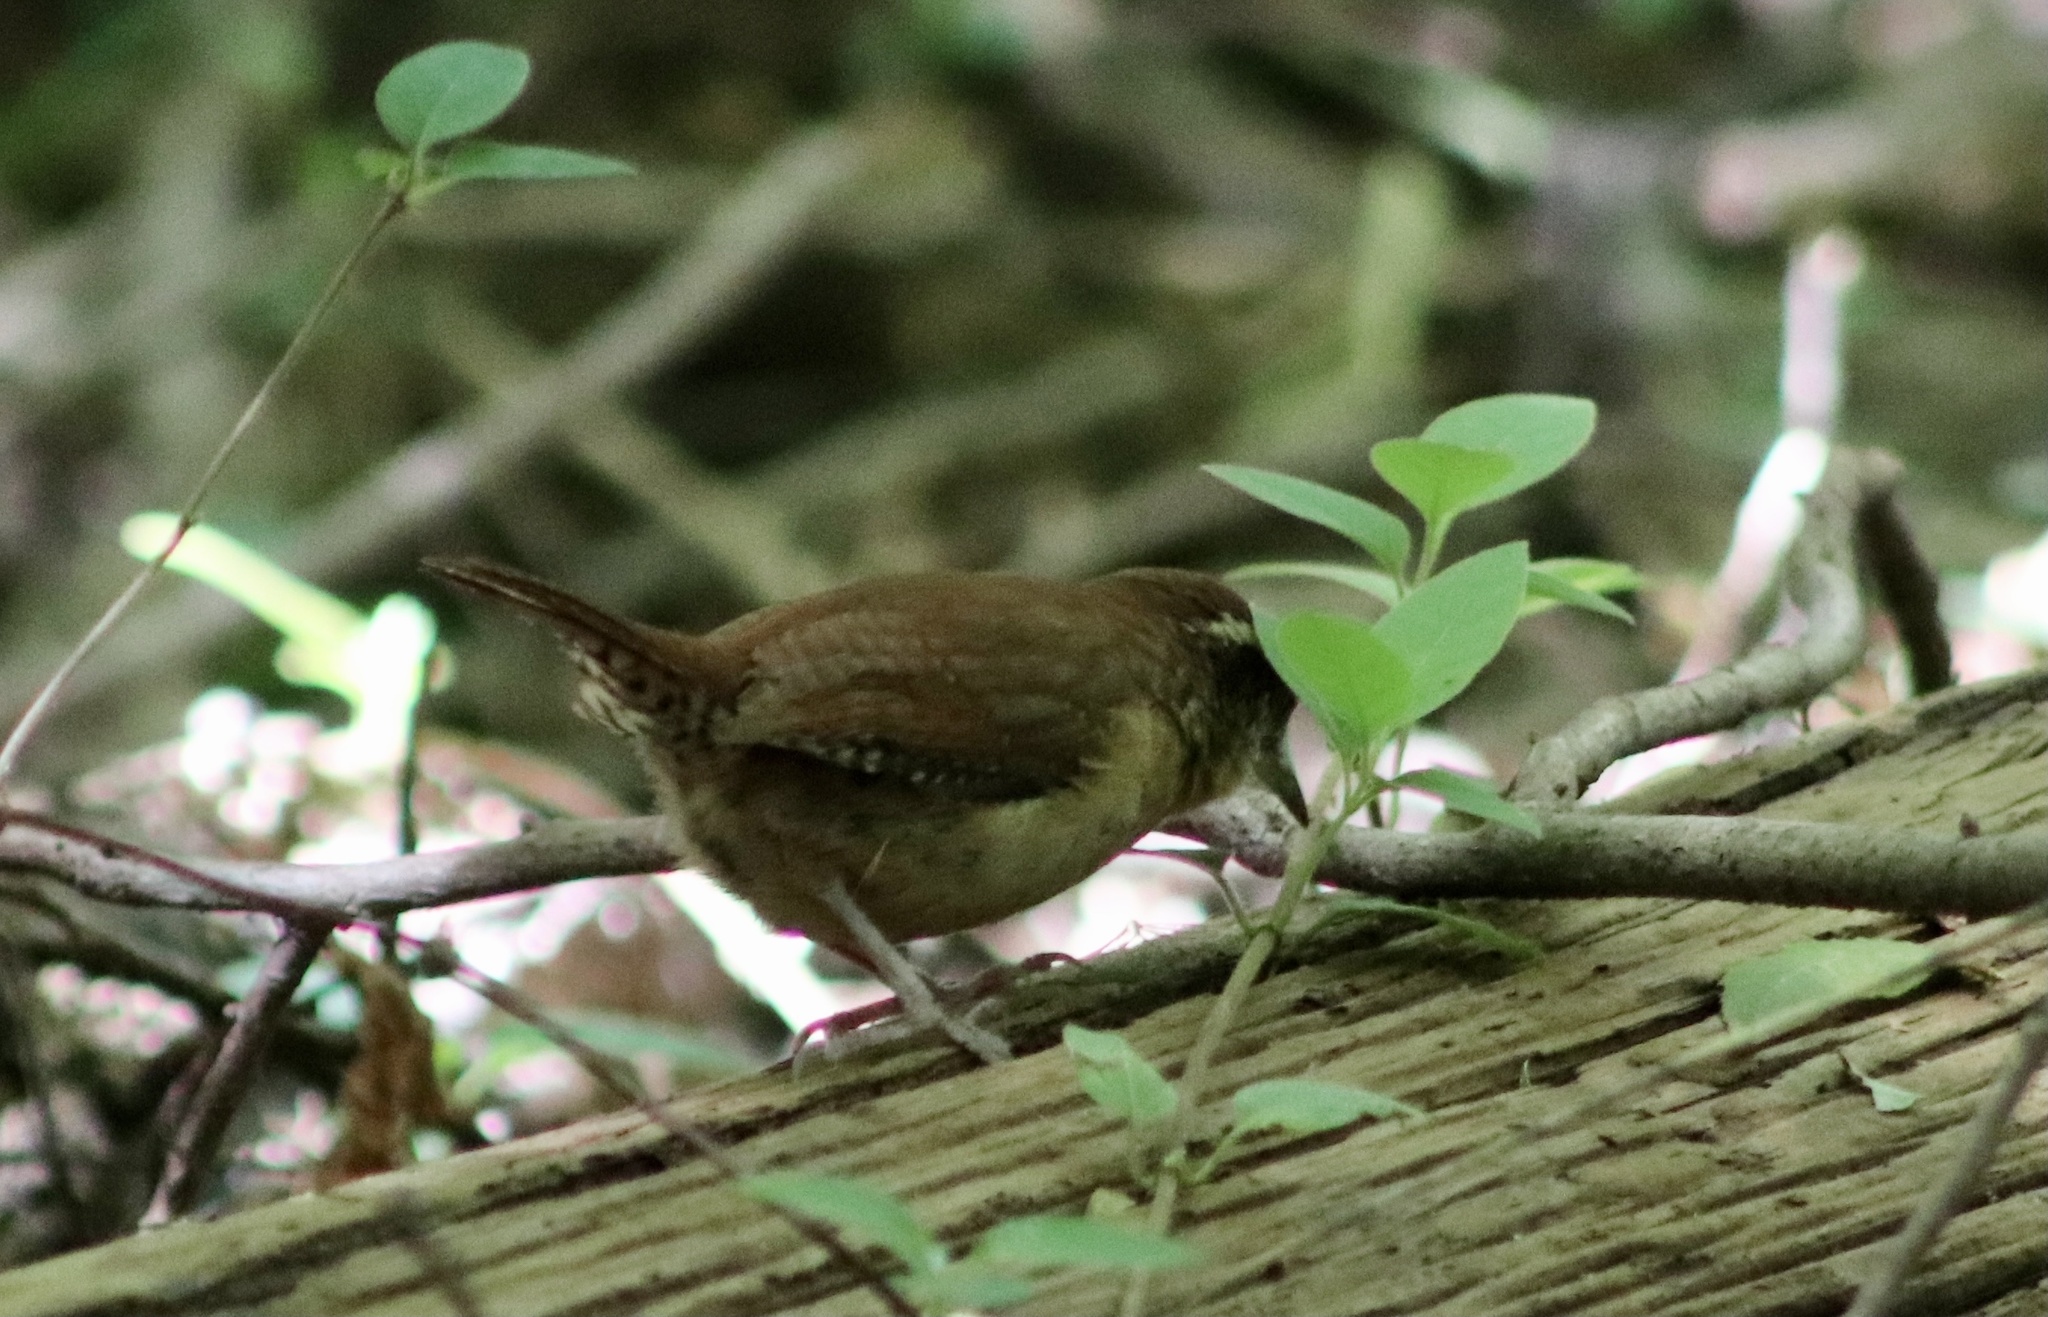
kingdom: Animalia
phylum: Chordata
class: Aves
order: Passeriformes
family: Troglodytidae
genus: Thryothorus
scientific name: Thryothorus ludovicianus
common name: Carolina wren
